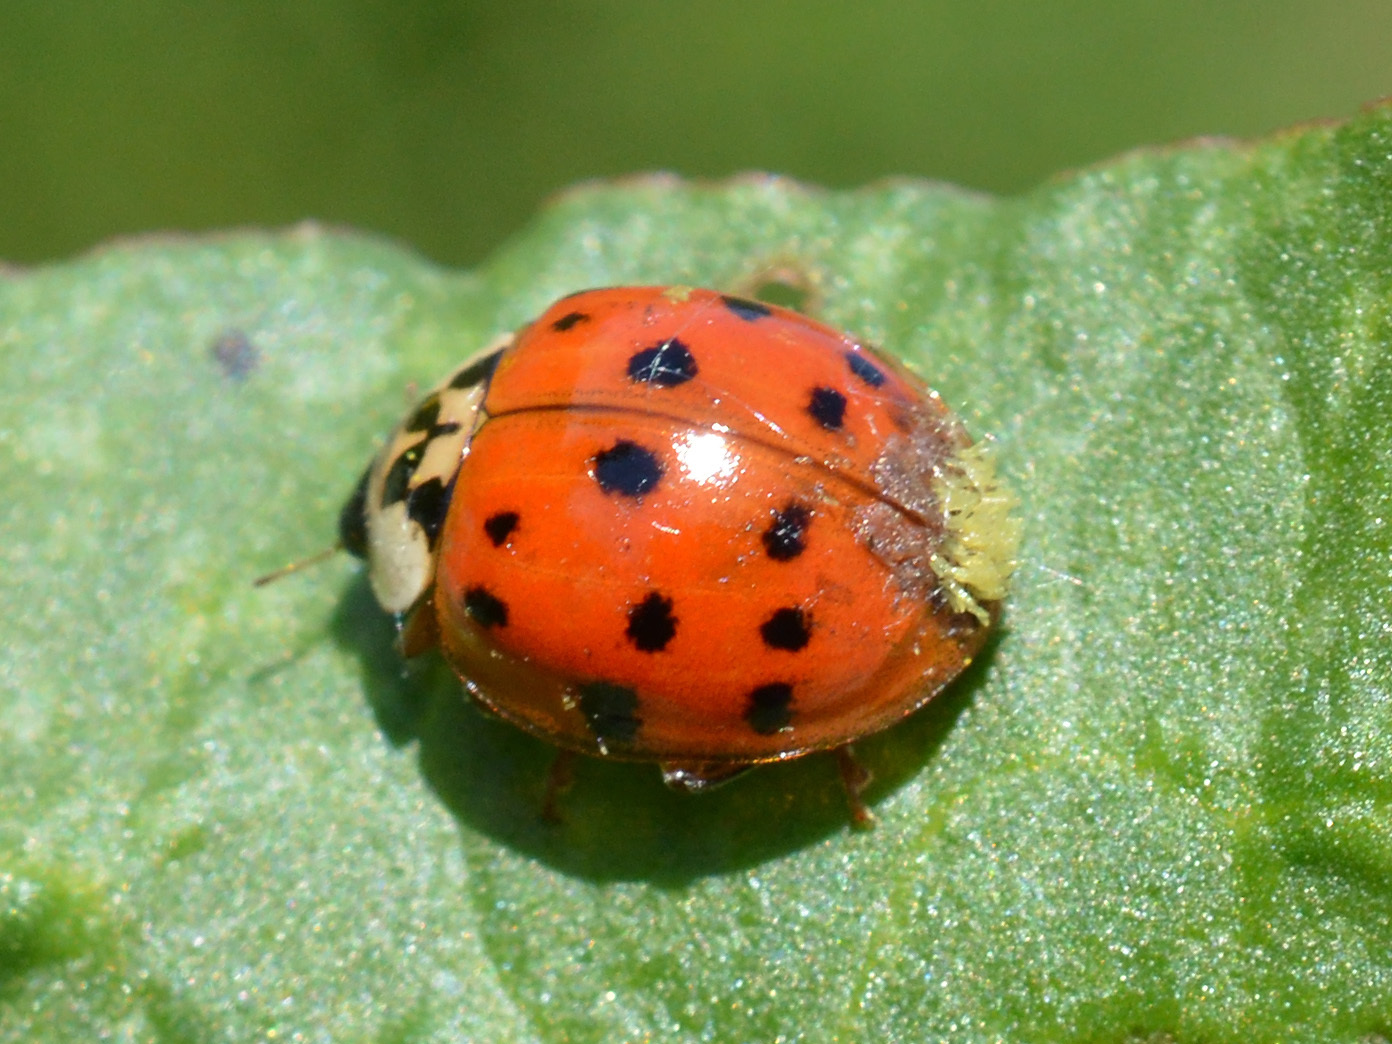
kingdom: Animalia
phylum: Arthropoda
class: Insecta
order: Coleoptera
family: Coccinellidae
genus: Harmonia
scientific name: Harmonia axyridis
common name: Harlequin ladybird
